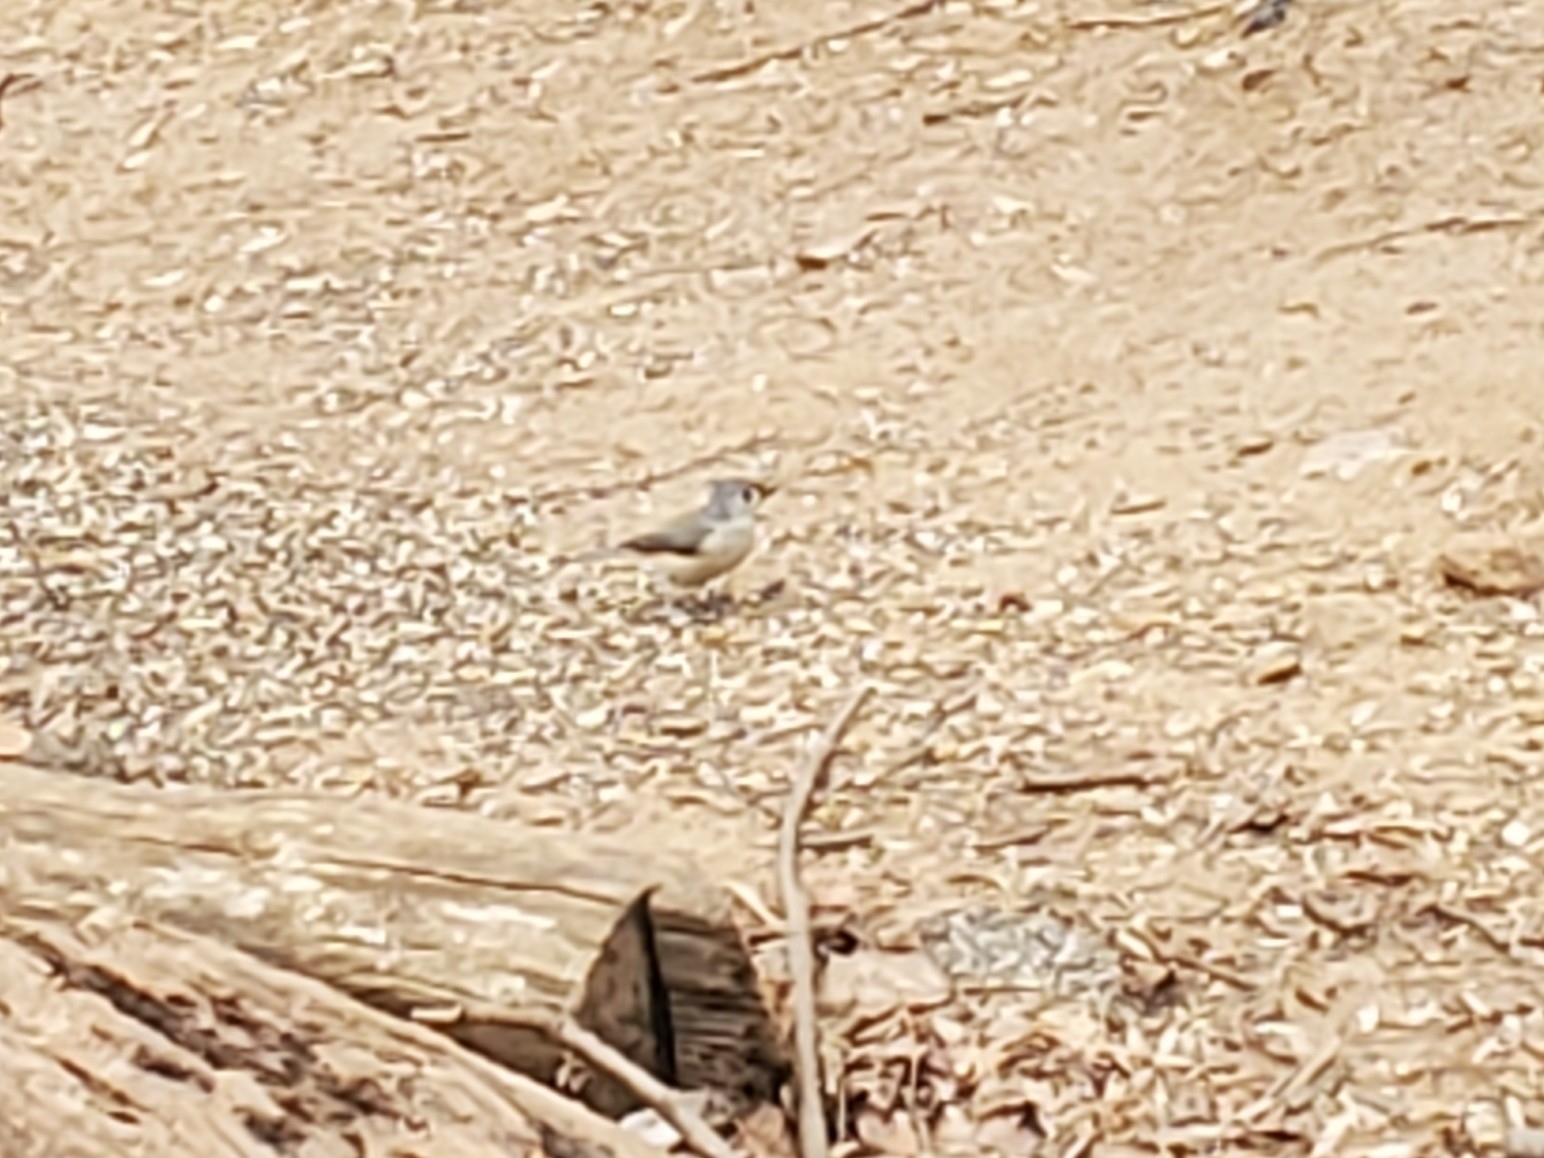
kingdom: Animalia
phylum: Chordata
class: Aves
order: Passeriformes
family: Paridae
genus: Baeolophus
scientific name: Baeolophus bicolor
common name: Tufted titmouse
